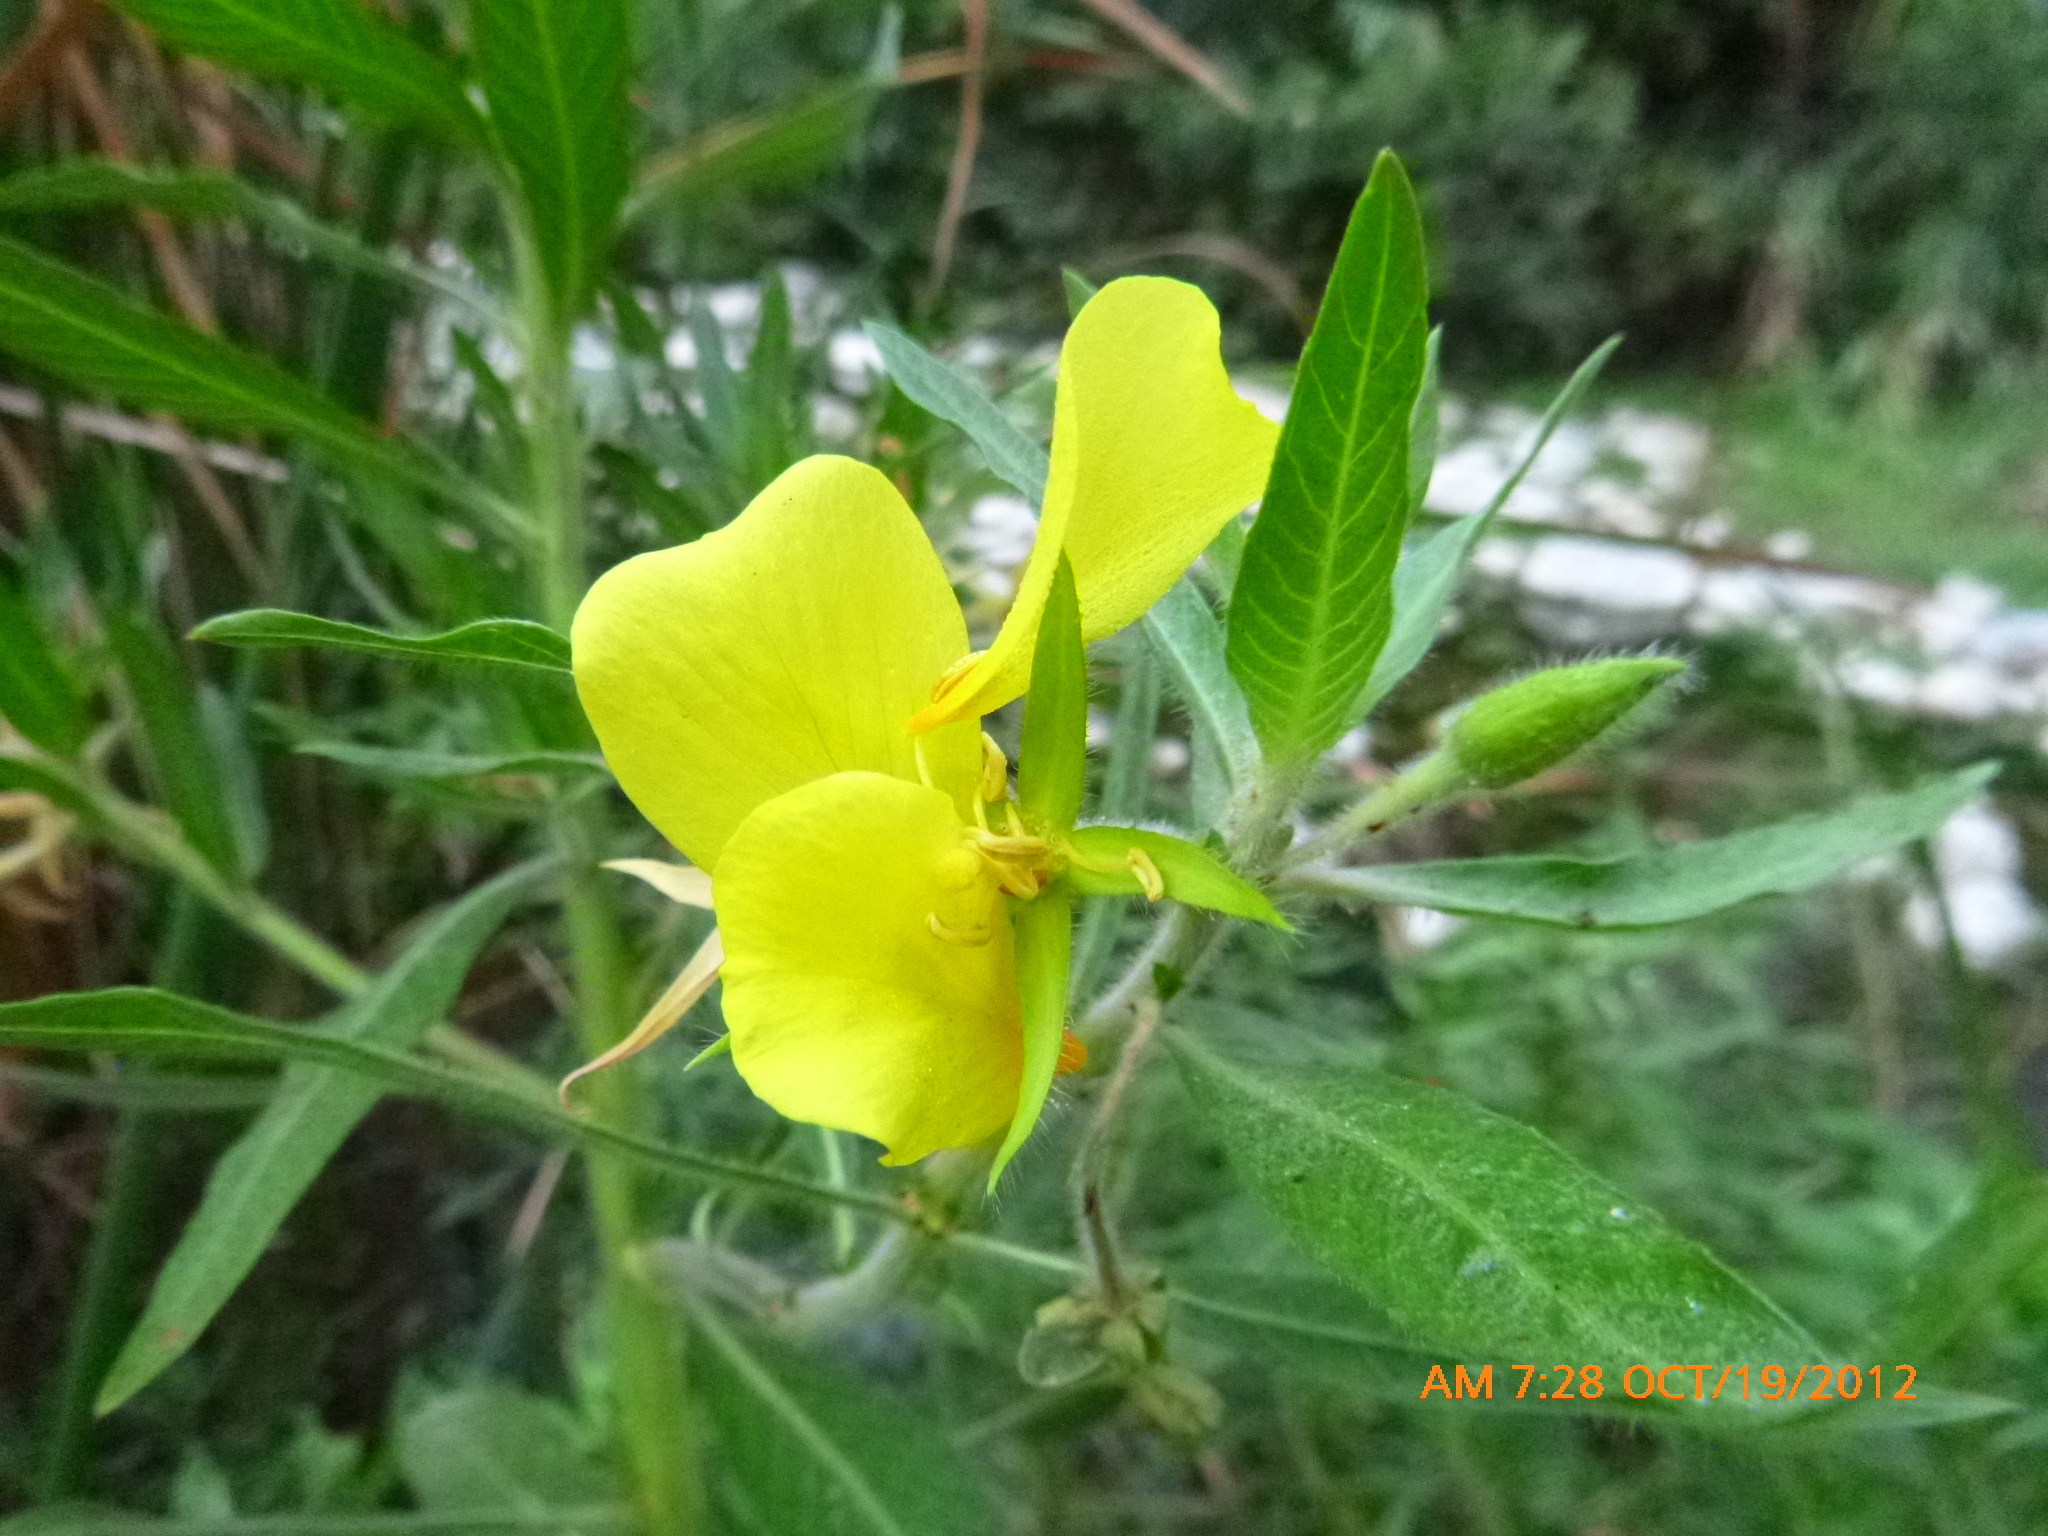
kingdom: Plantae
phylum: Tracheophyta
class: Magnoliopsida
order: Myrtales
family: Onagraceae
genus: Ludwigia
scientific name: Ludwigia hexapetala
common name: Water-primrose
